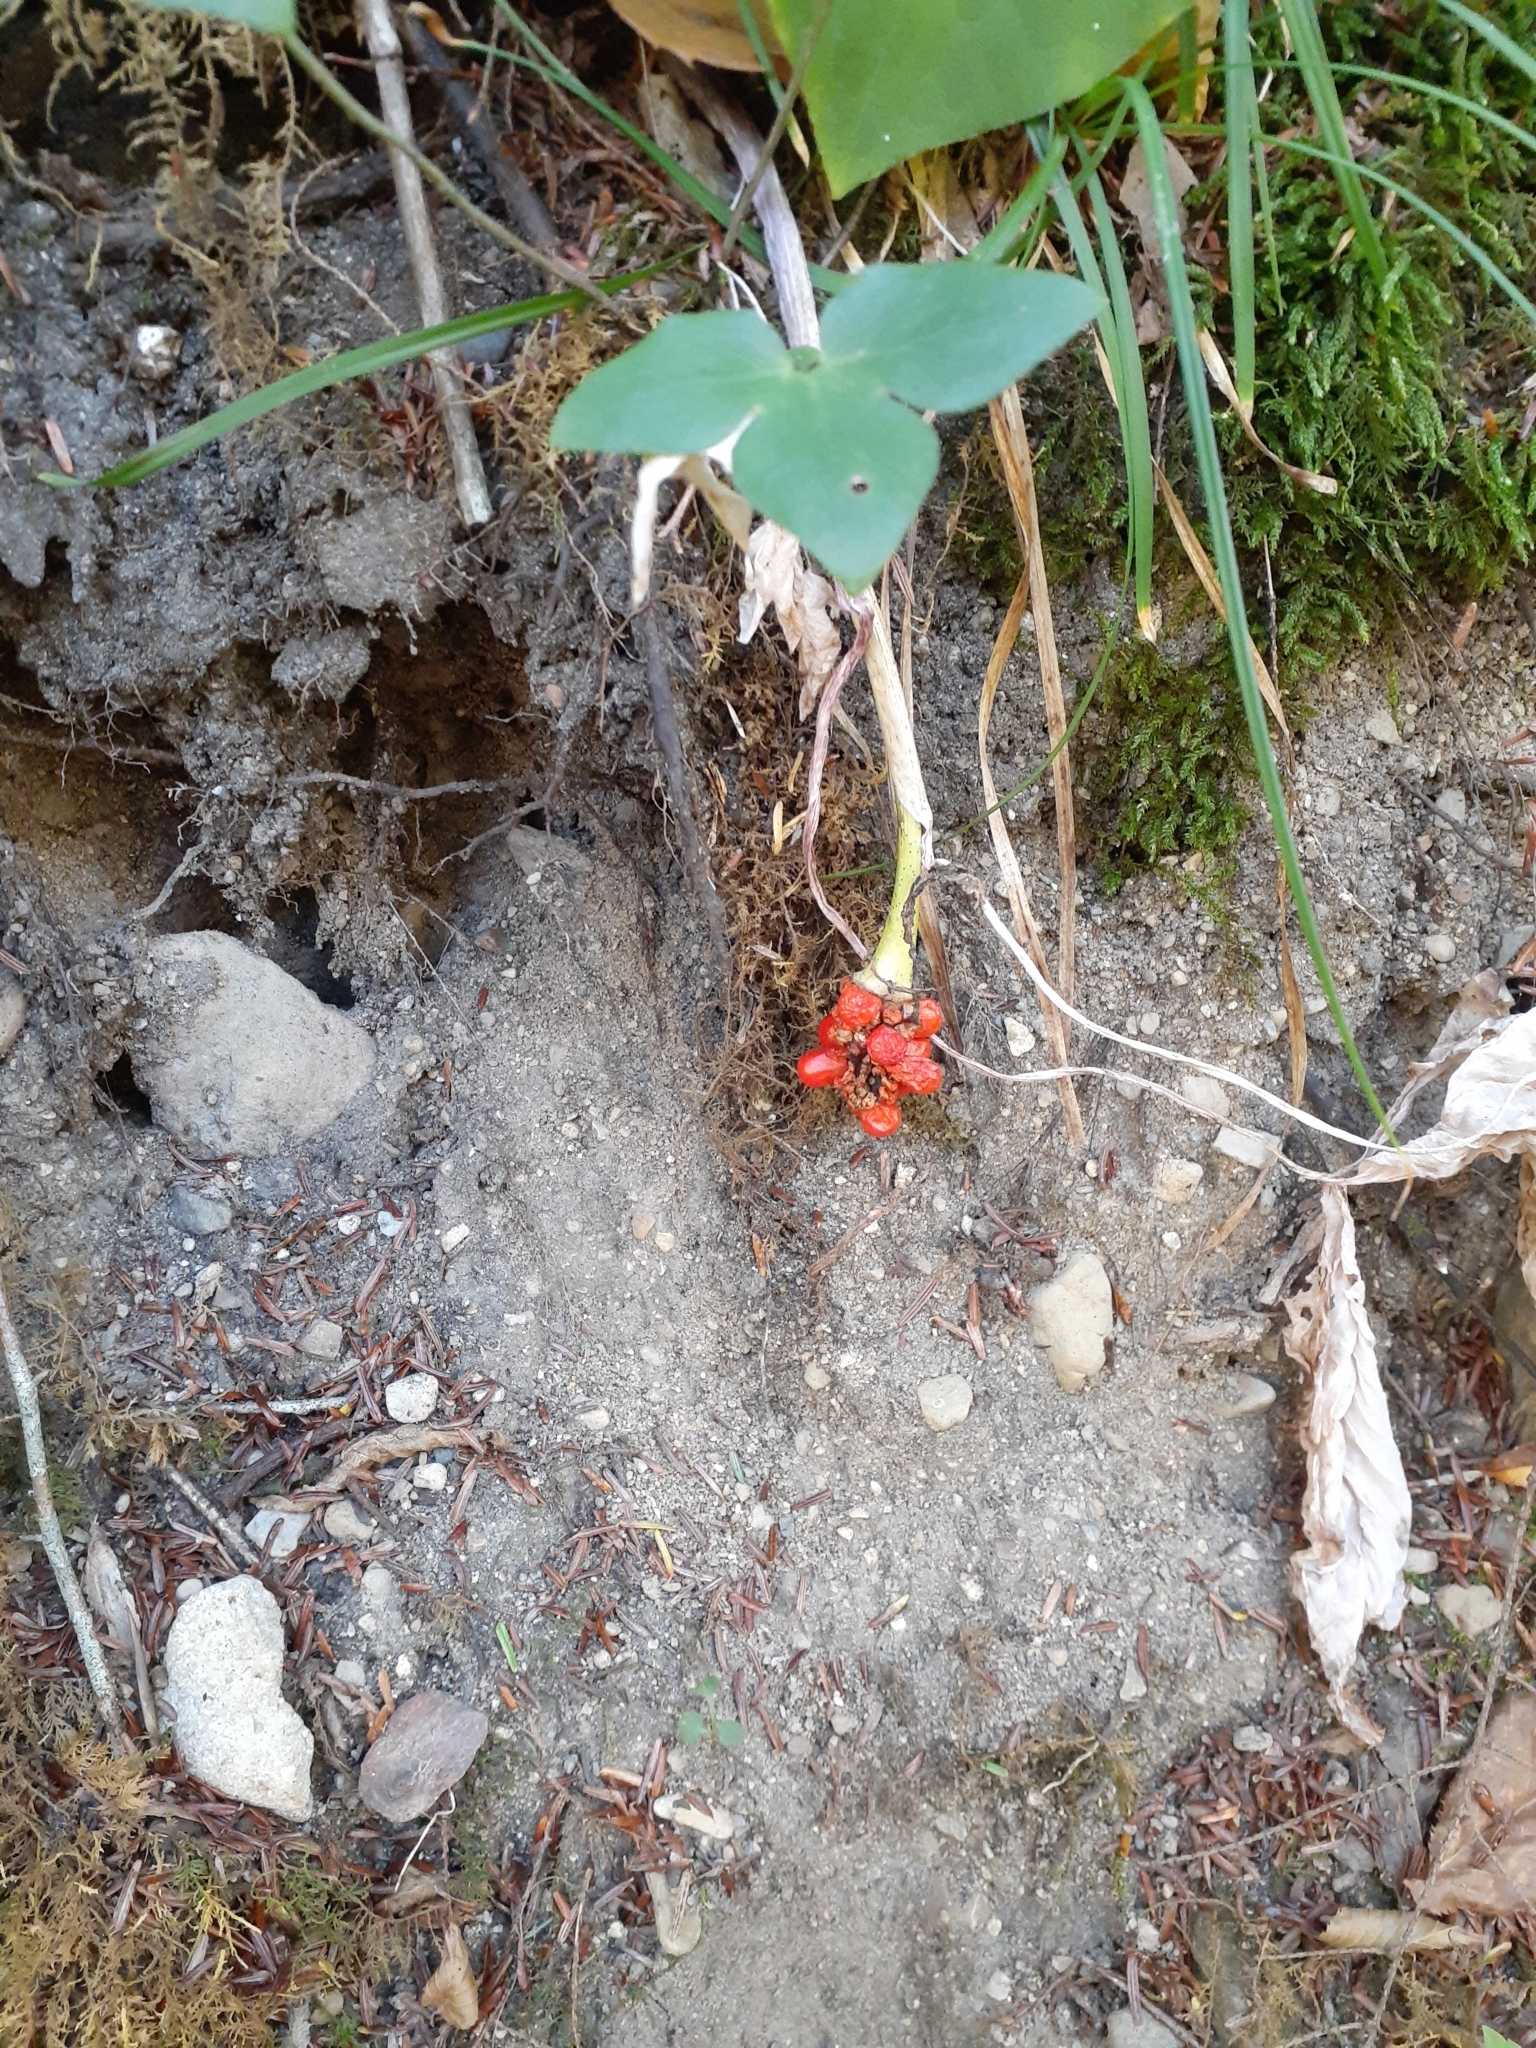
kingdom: Plantae
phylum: Tracheophyta
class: Liliopsida
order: Alismatales
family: Araceae
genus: Arisaema
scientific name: Arisaema triphyllum
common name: Jack-in-the-pulpit
